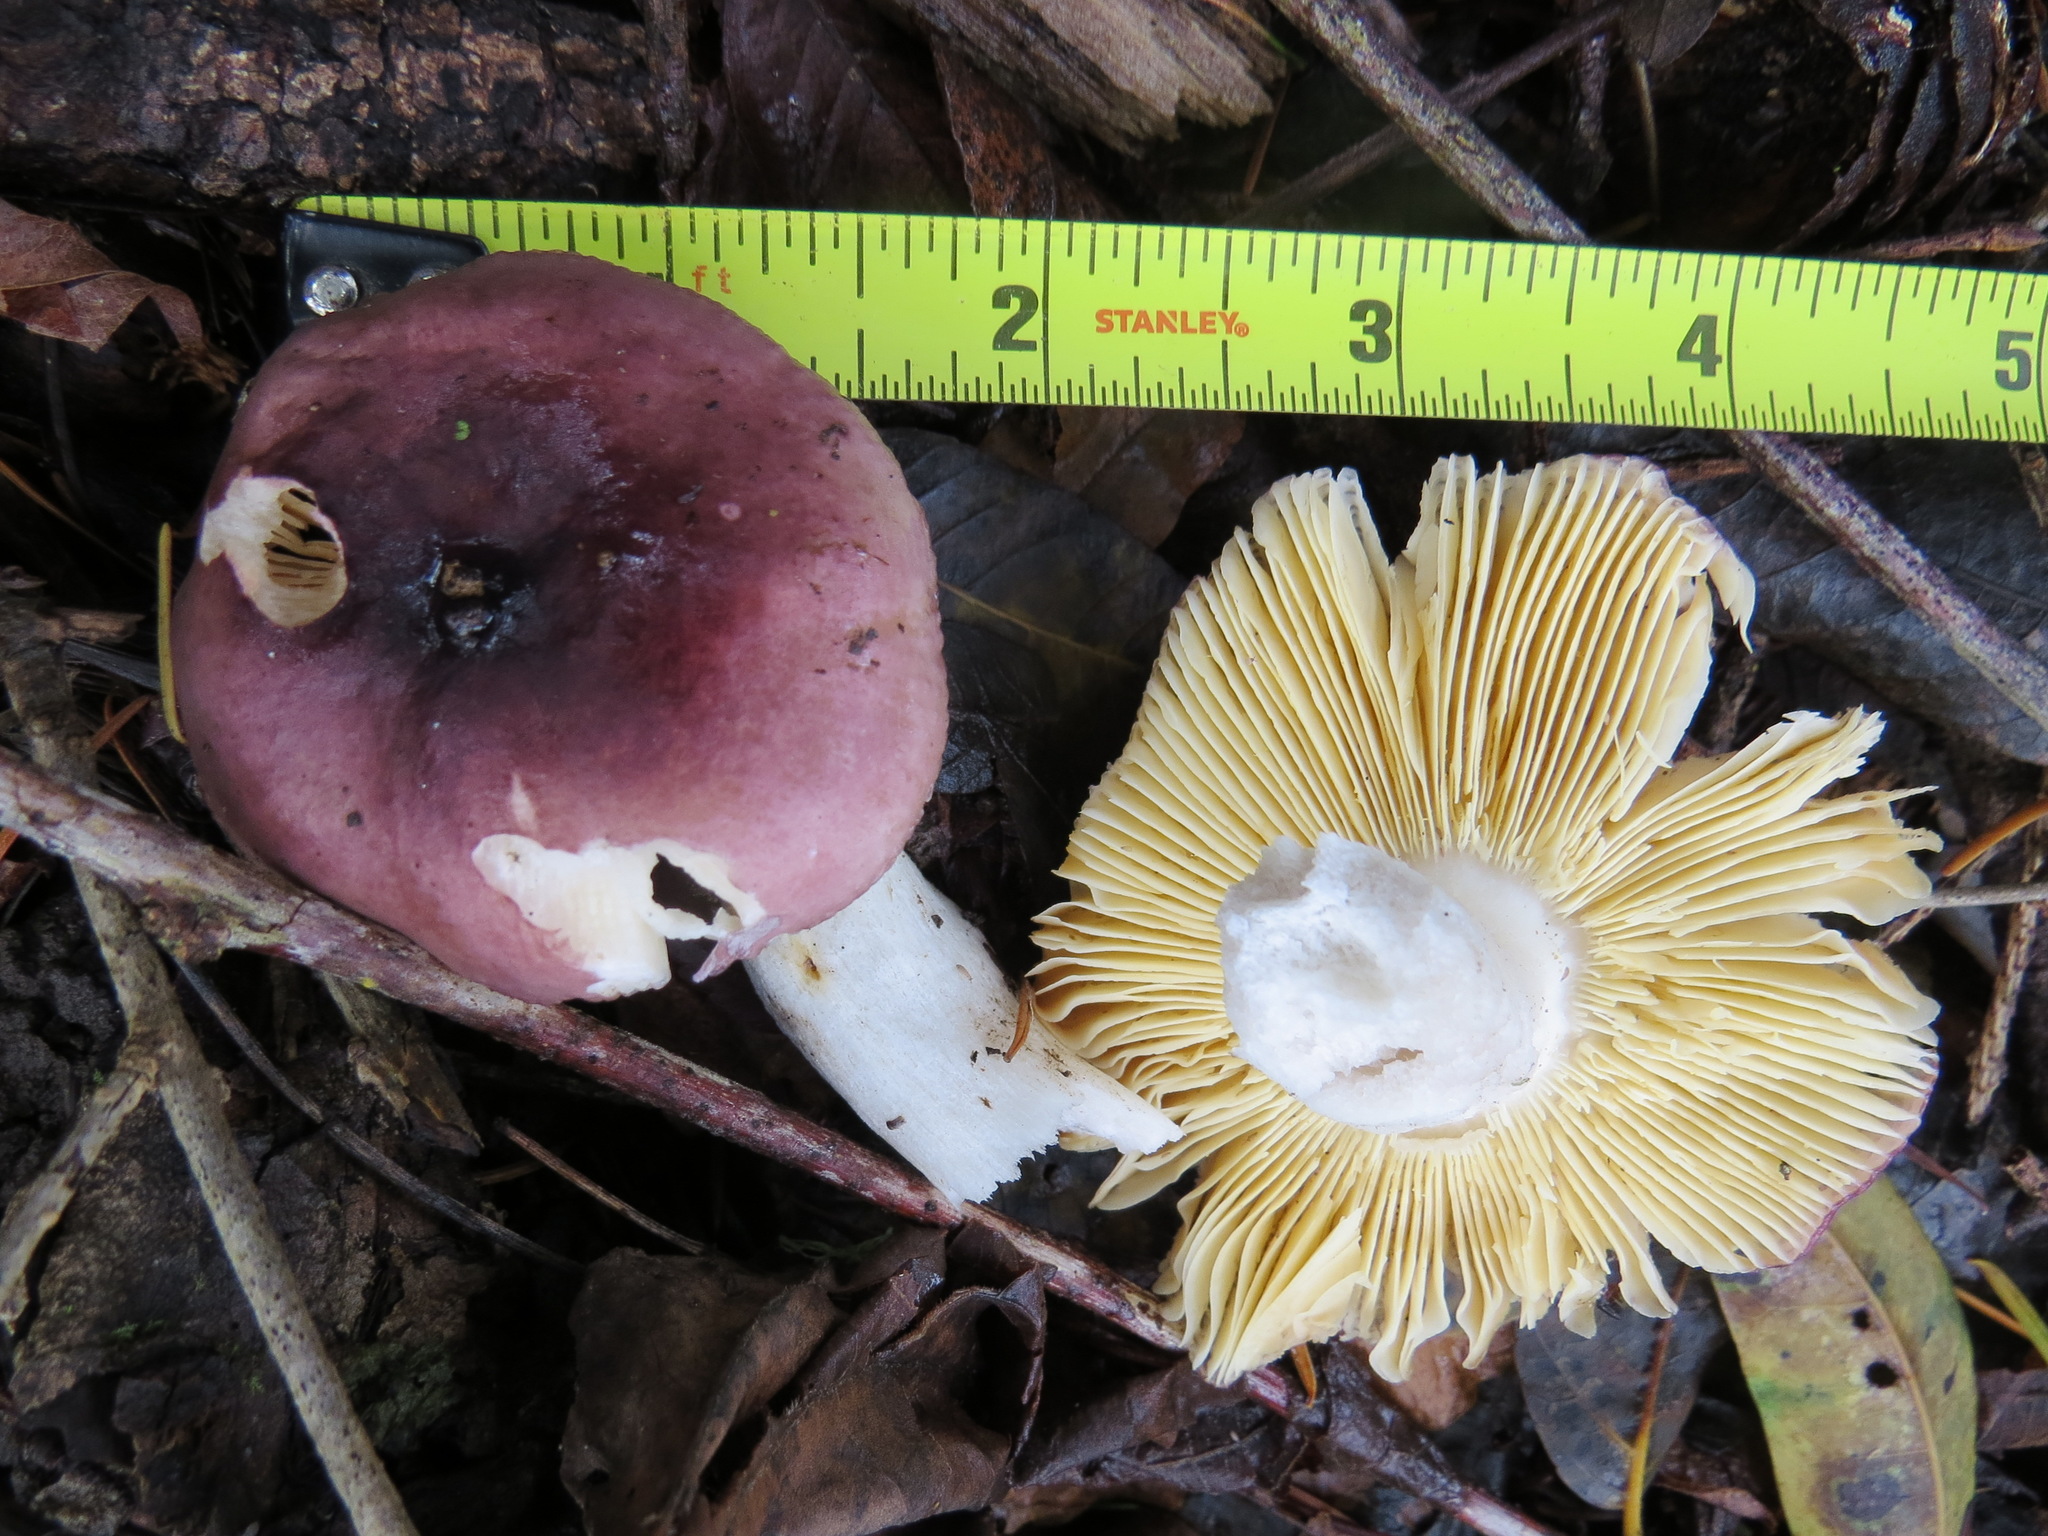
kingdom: Fungi
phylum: Basidiomycota
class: Agaricomycetes
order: Russulales
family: Russulaceae
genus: Russula
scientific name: Russula xerampelina
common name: Crab brittlegill
